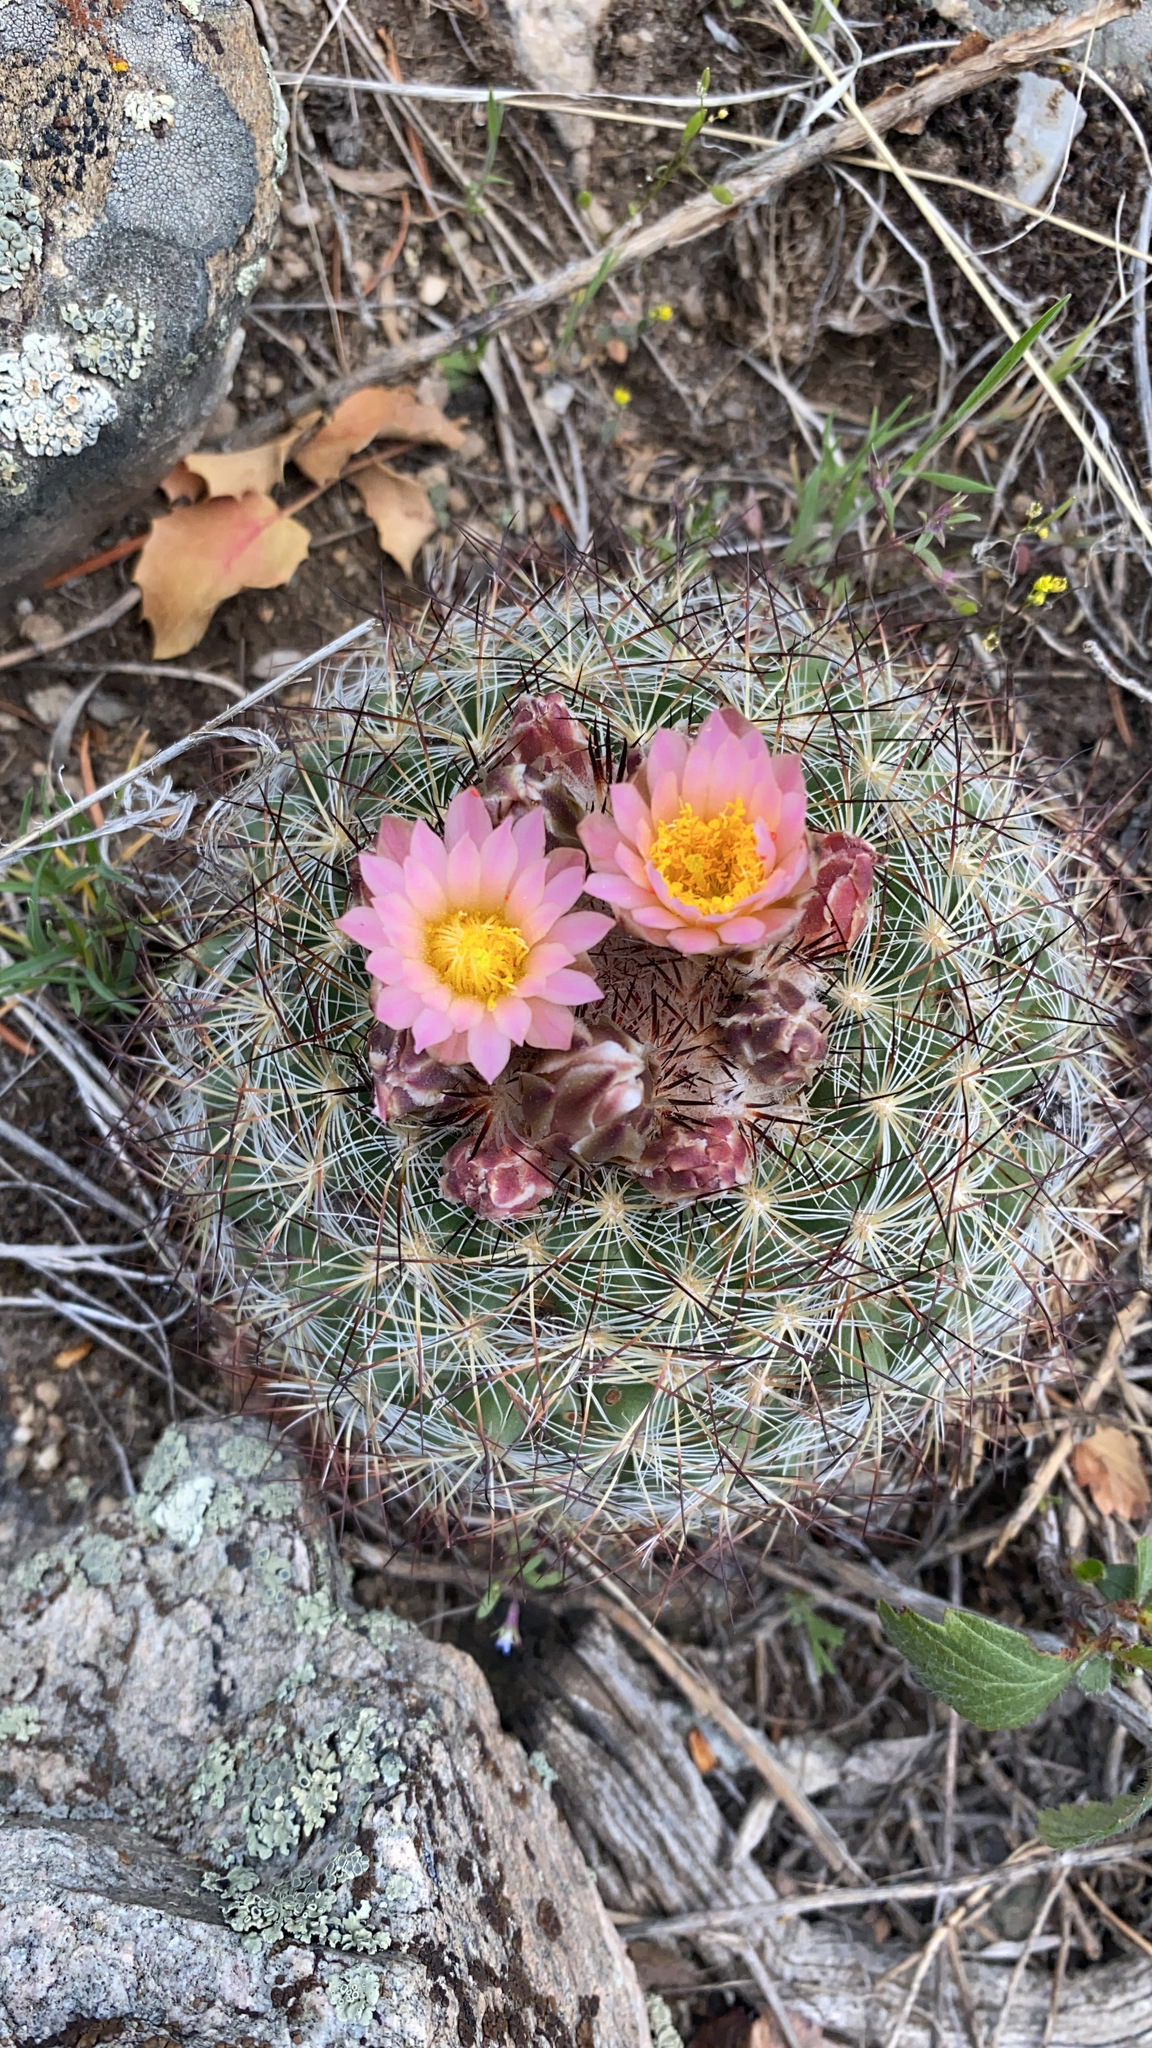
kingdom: Plantae
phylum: Tracheophyta
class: Magnoliopsida
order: Caryophyllales
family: Cactaceae
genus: Pediocactus
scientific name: Pediocactus simpsonii
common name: Simpson's hedgehog cactus
